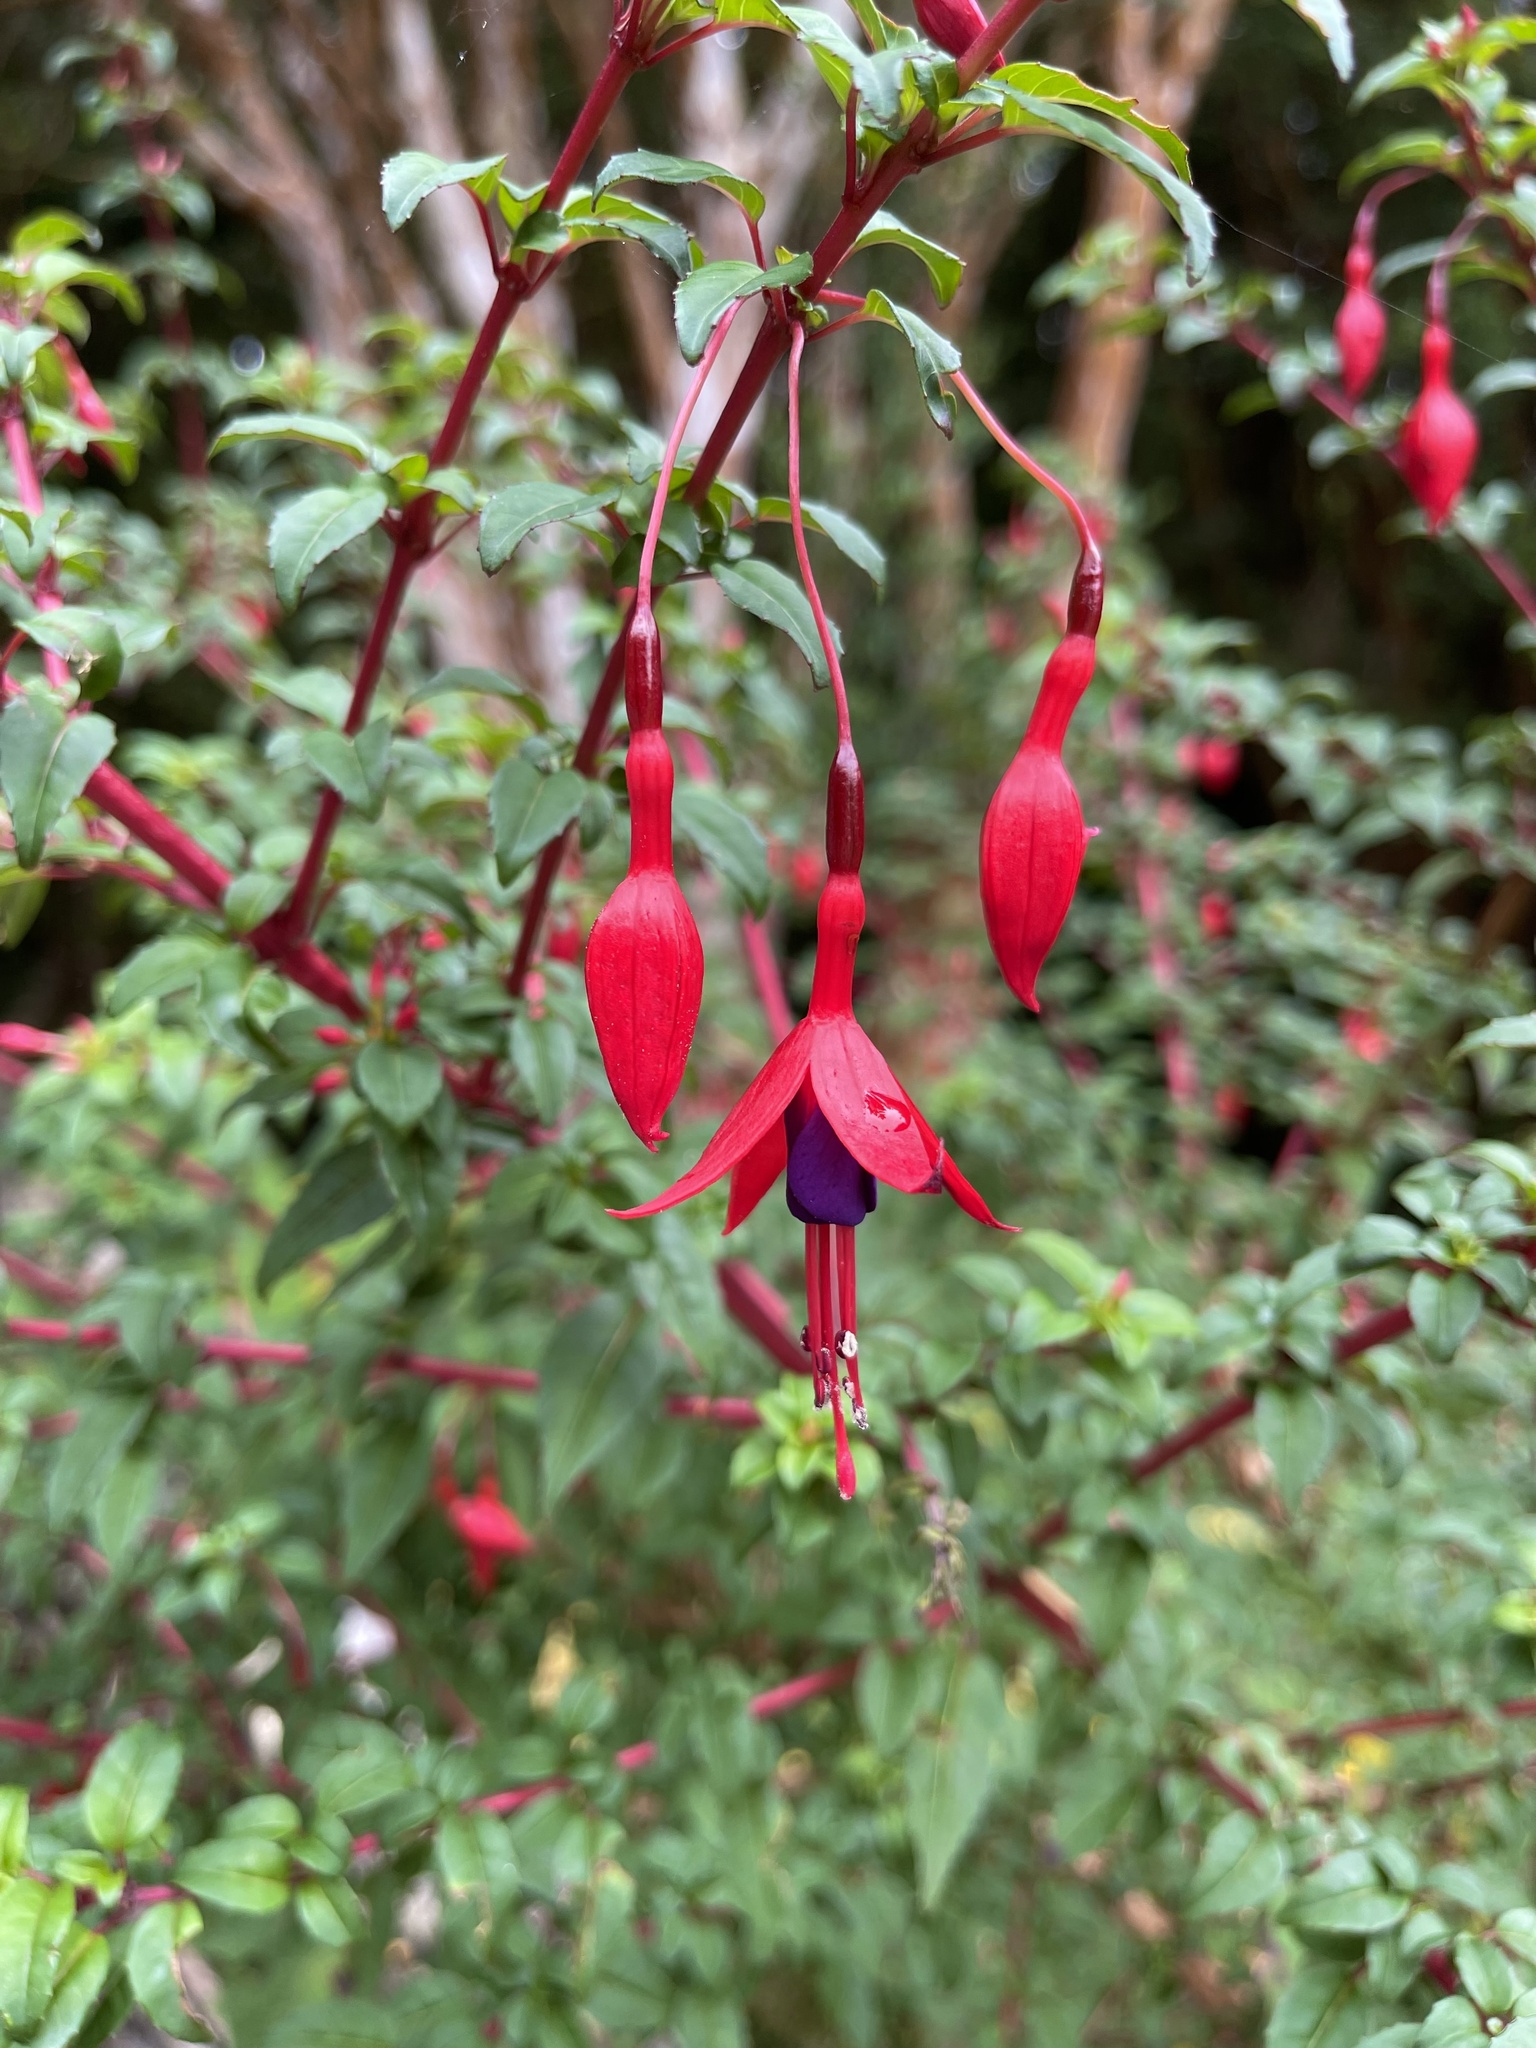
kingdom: Plantae
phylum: Tracheophyta
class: Magnoliopsida
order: Myrtales
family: Onagraceae
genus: Fuchsia
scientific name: Fuchsia magellanica
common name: Hardy fuchsia
